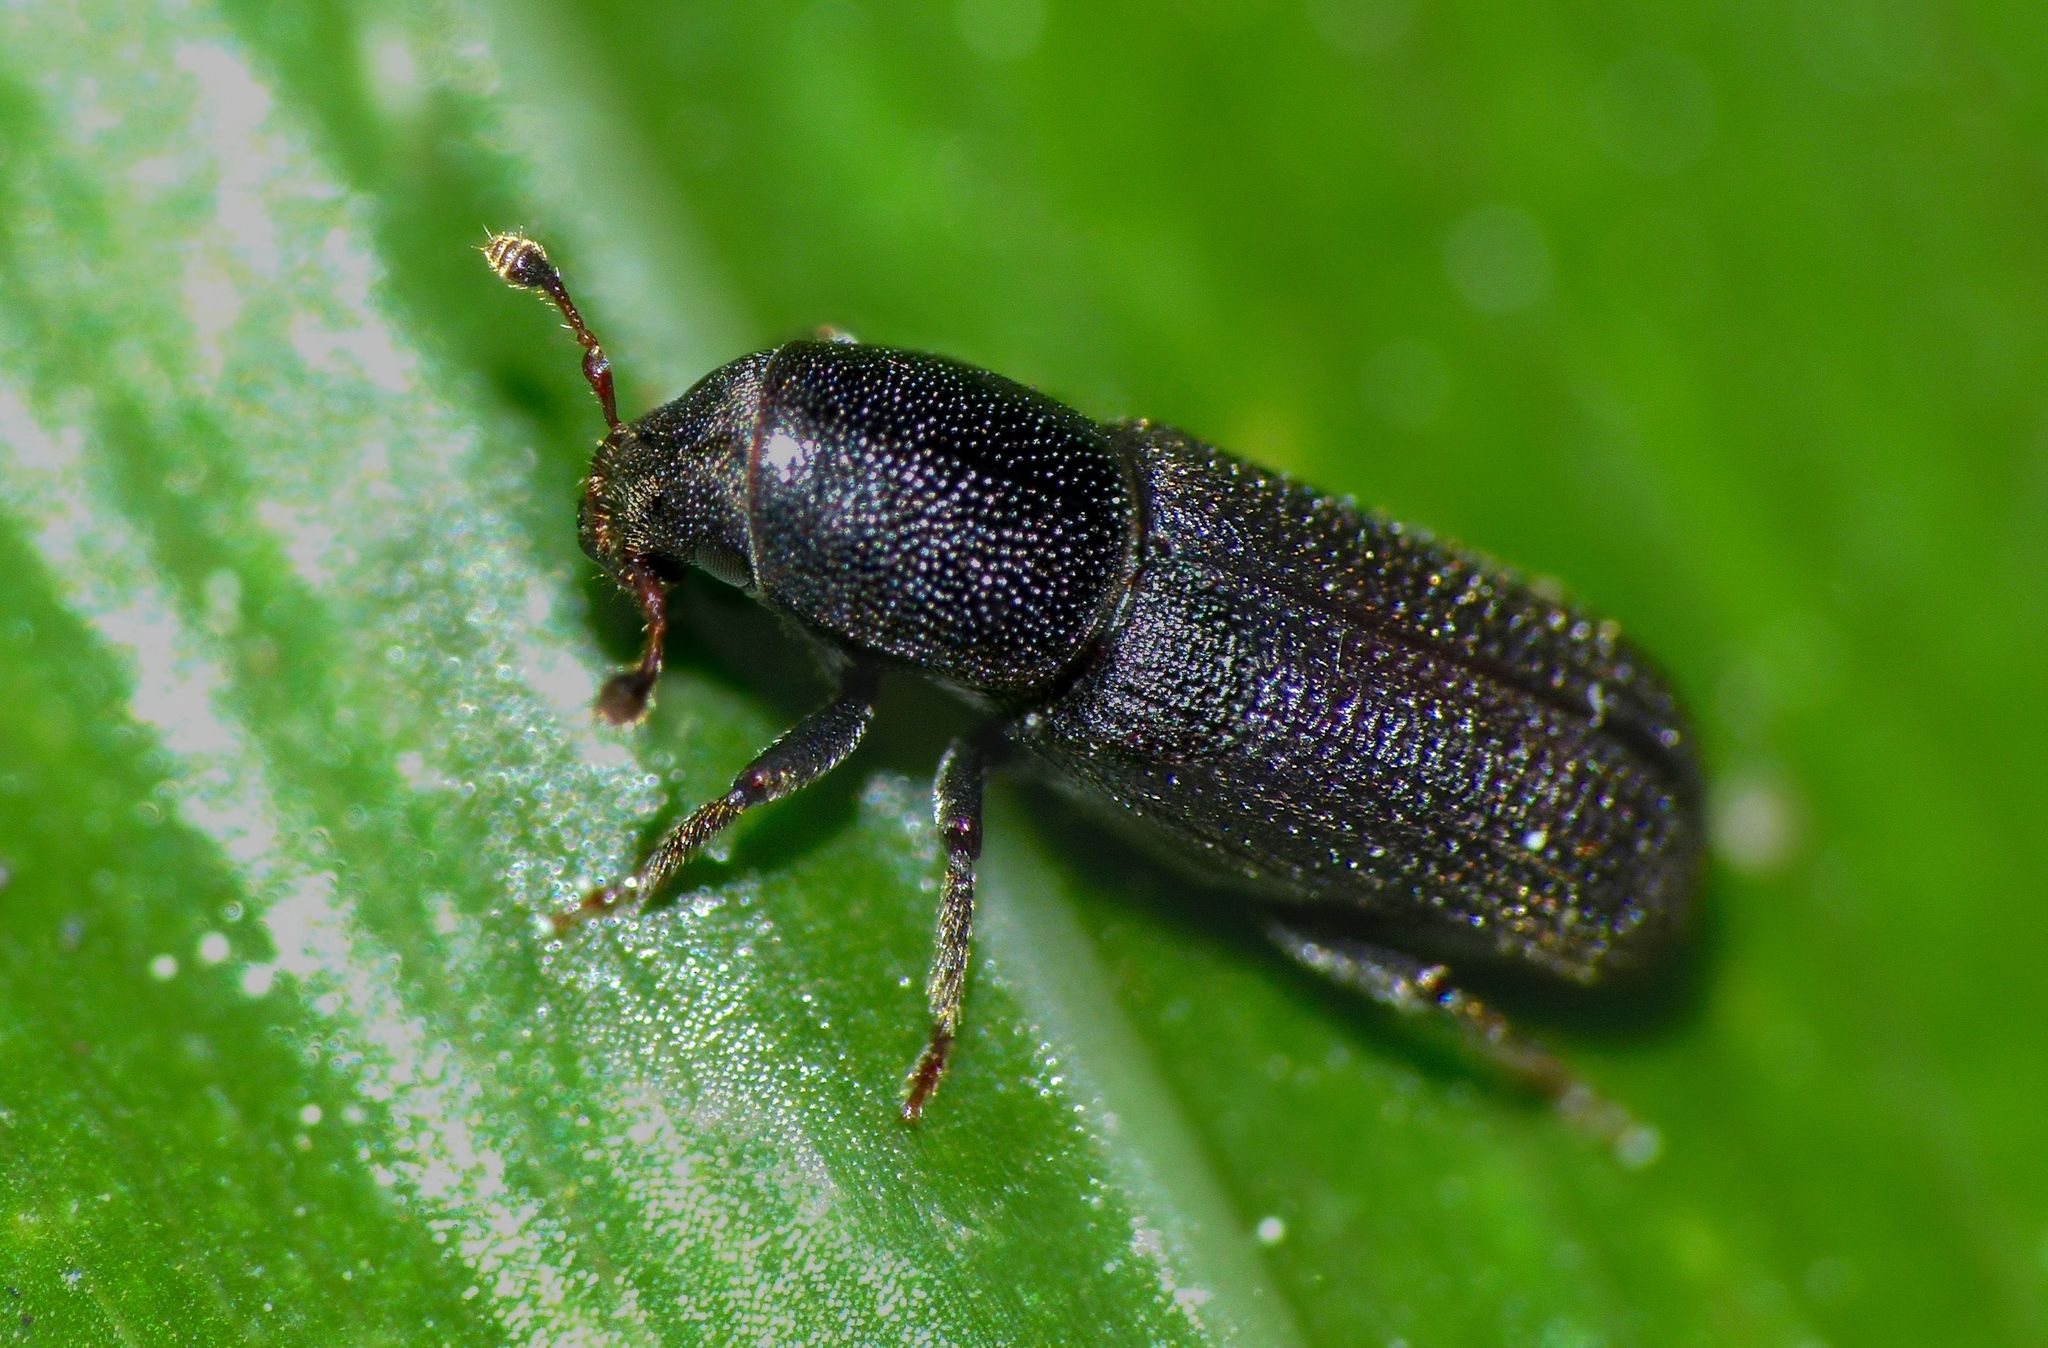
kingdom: Animalia
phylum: Arthropoda
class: Insecta
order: Coleoptera
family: Curculionidae
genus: Hylastes
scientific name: Hylastes ater
